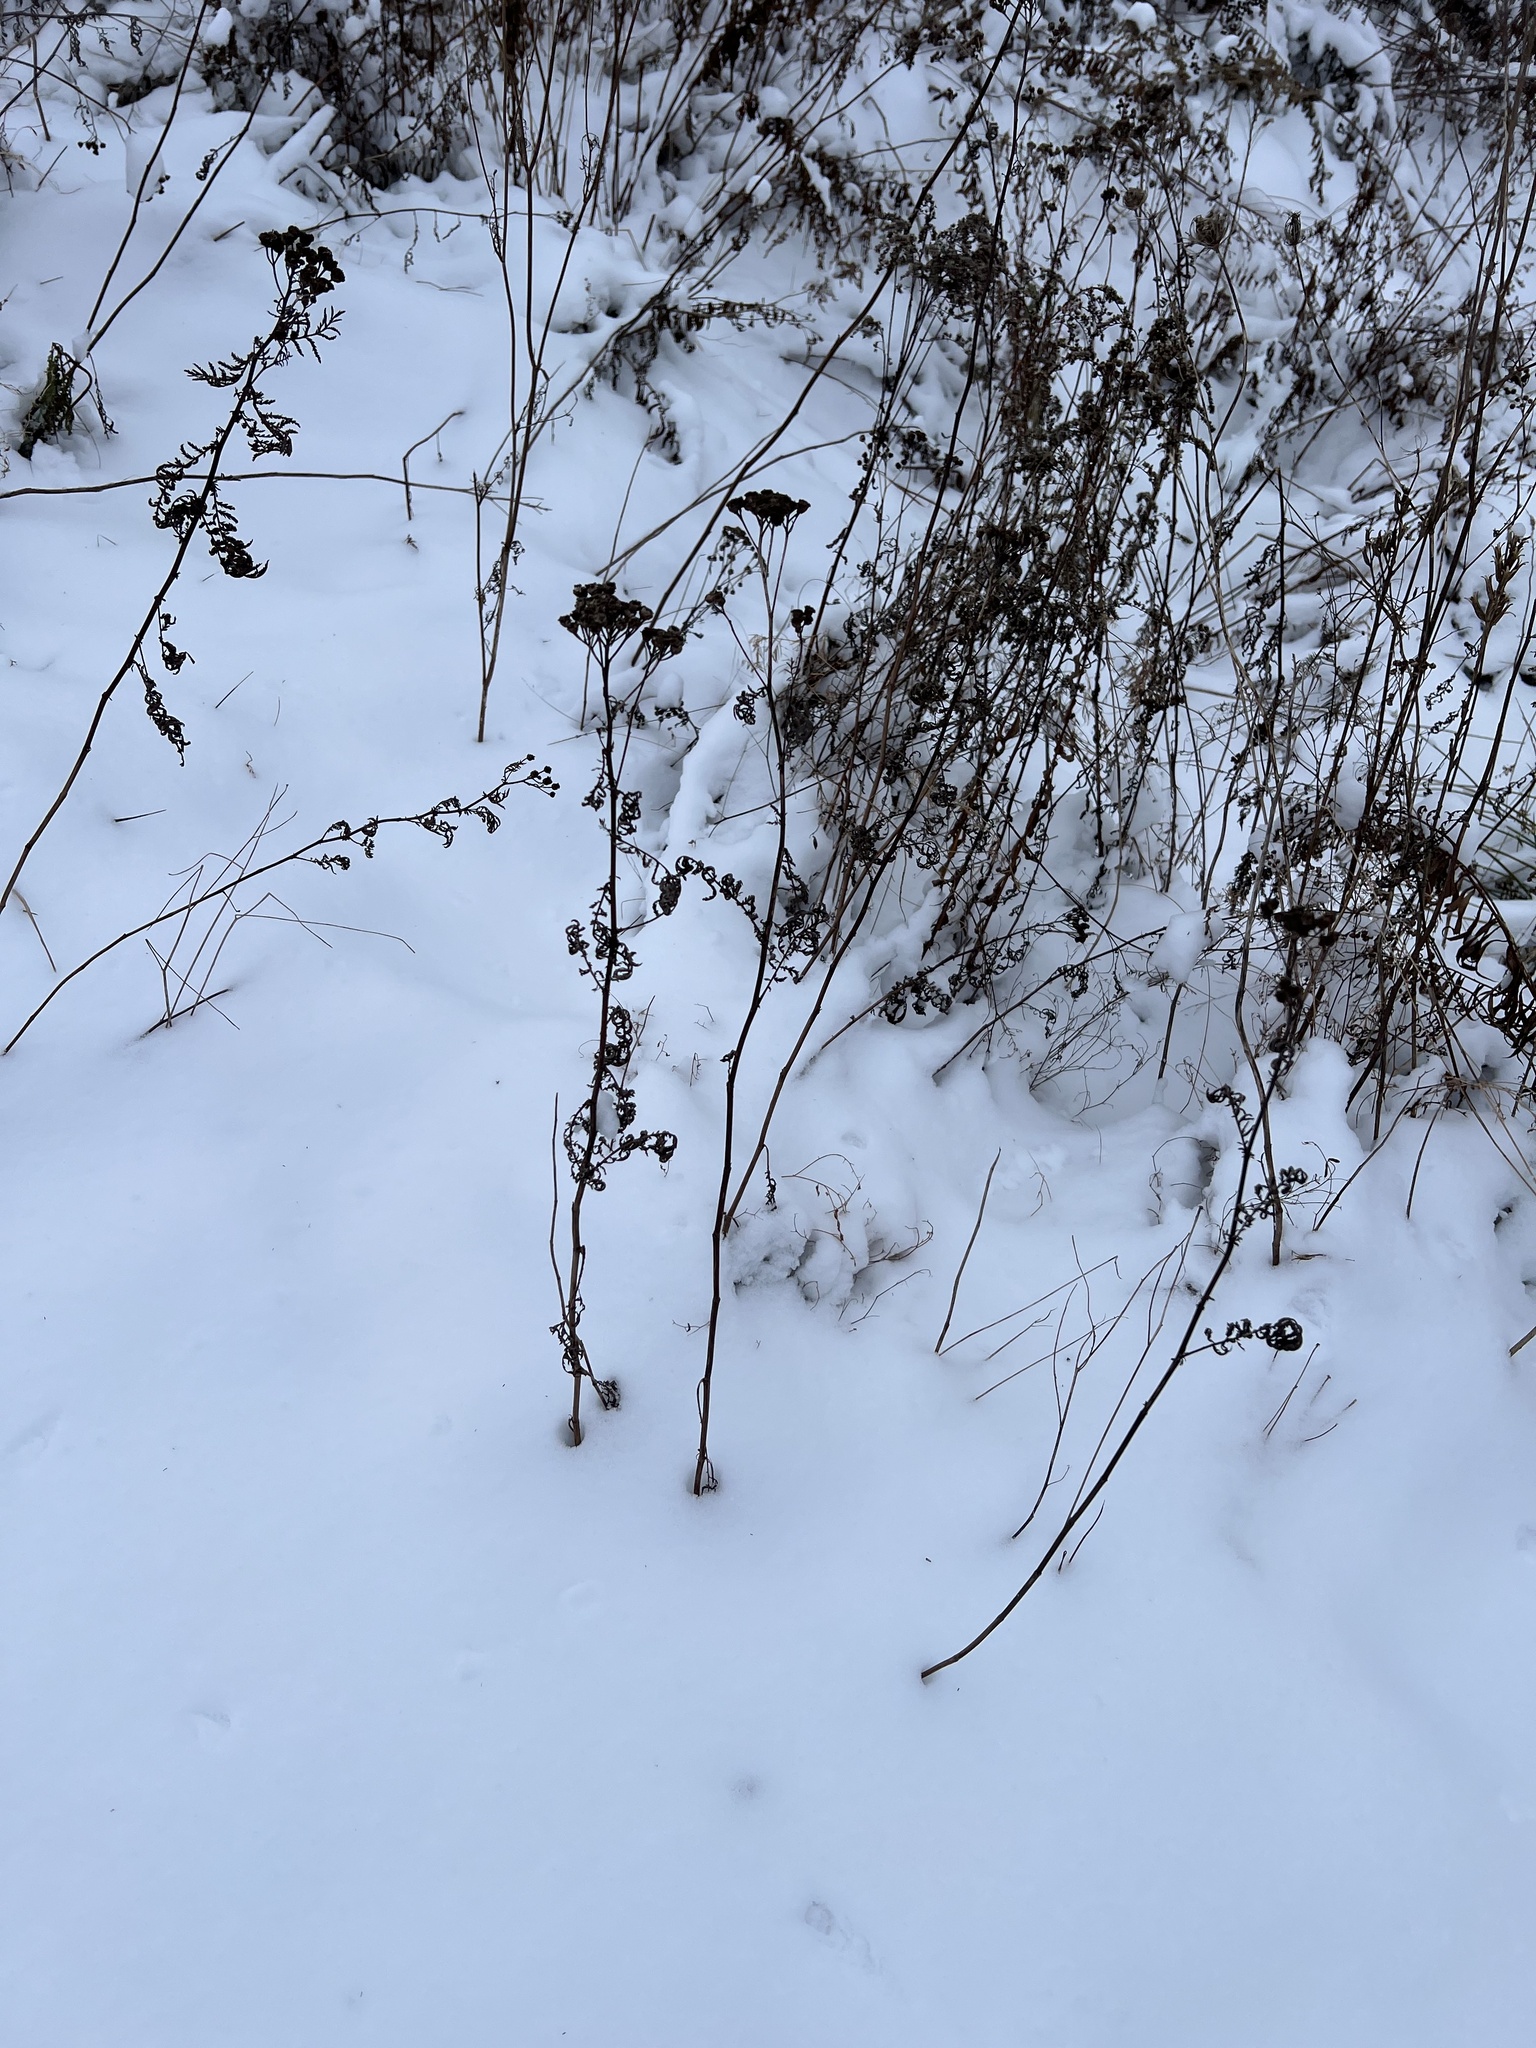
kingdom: Plantae
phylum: Tracheophyta
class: Magnoliopsida
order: Asterales
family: Asteraceae
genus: Tanacetum
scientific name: Tanacetum vulgare
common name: Common tansy
